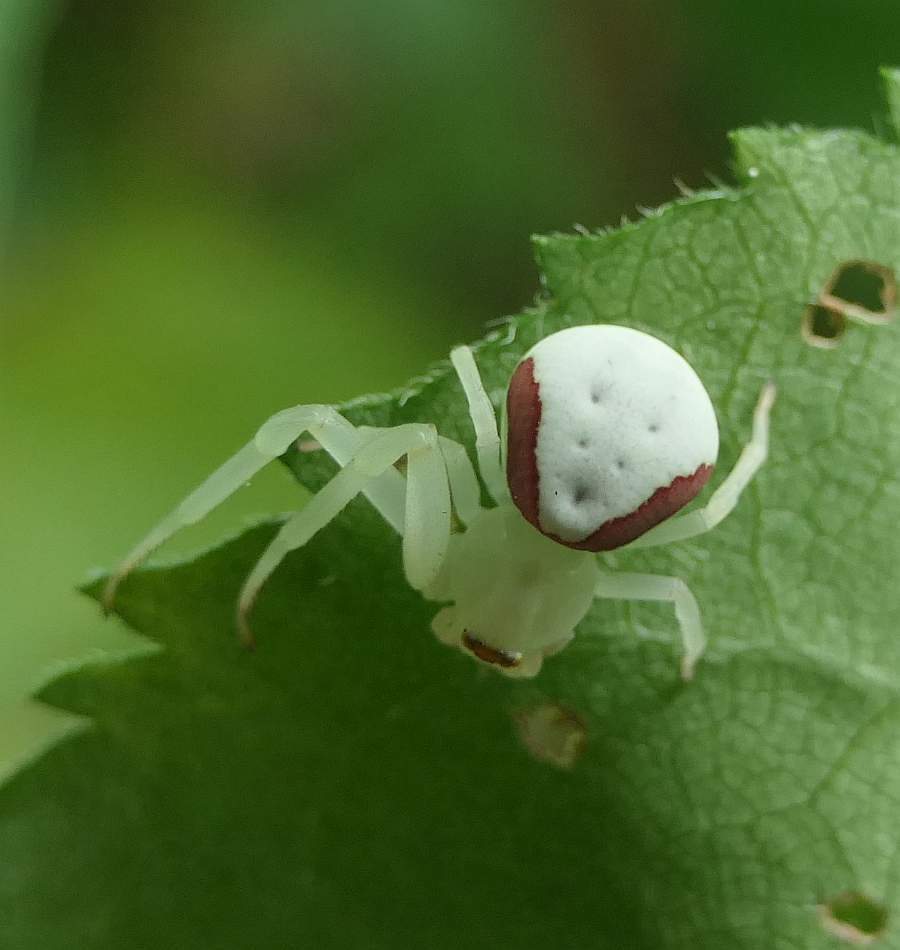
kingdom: Animalia
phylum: Arthropoda
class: Arachnida
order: Araneae
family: Thomisidae
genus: Misumena
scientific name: Misumena vatia
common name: Goldenrod crab spider
